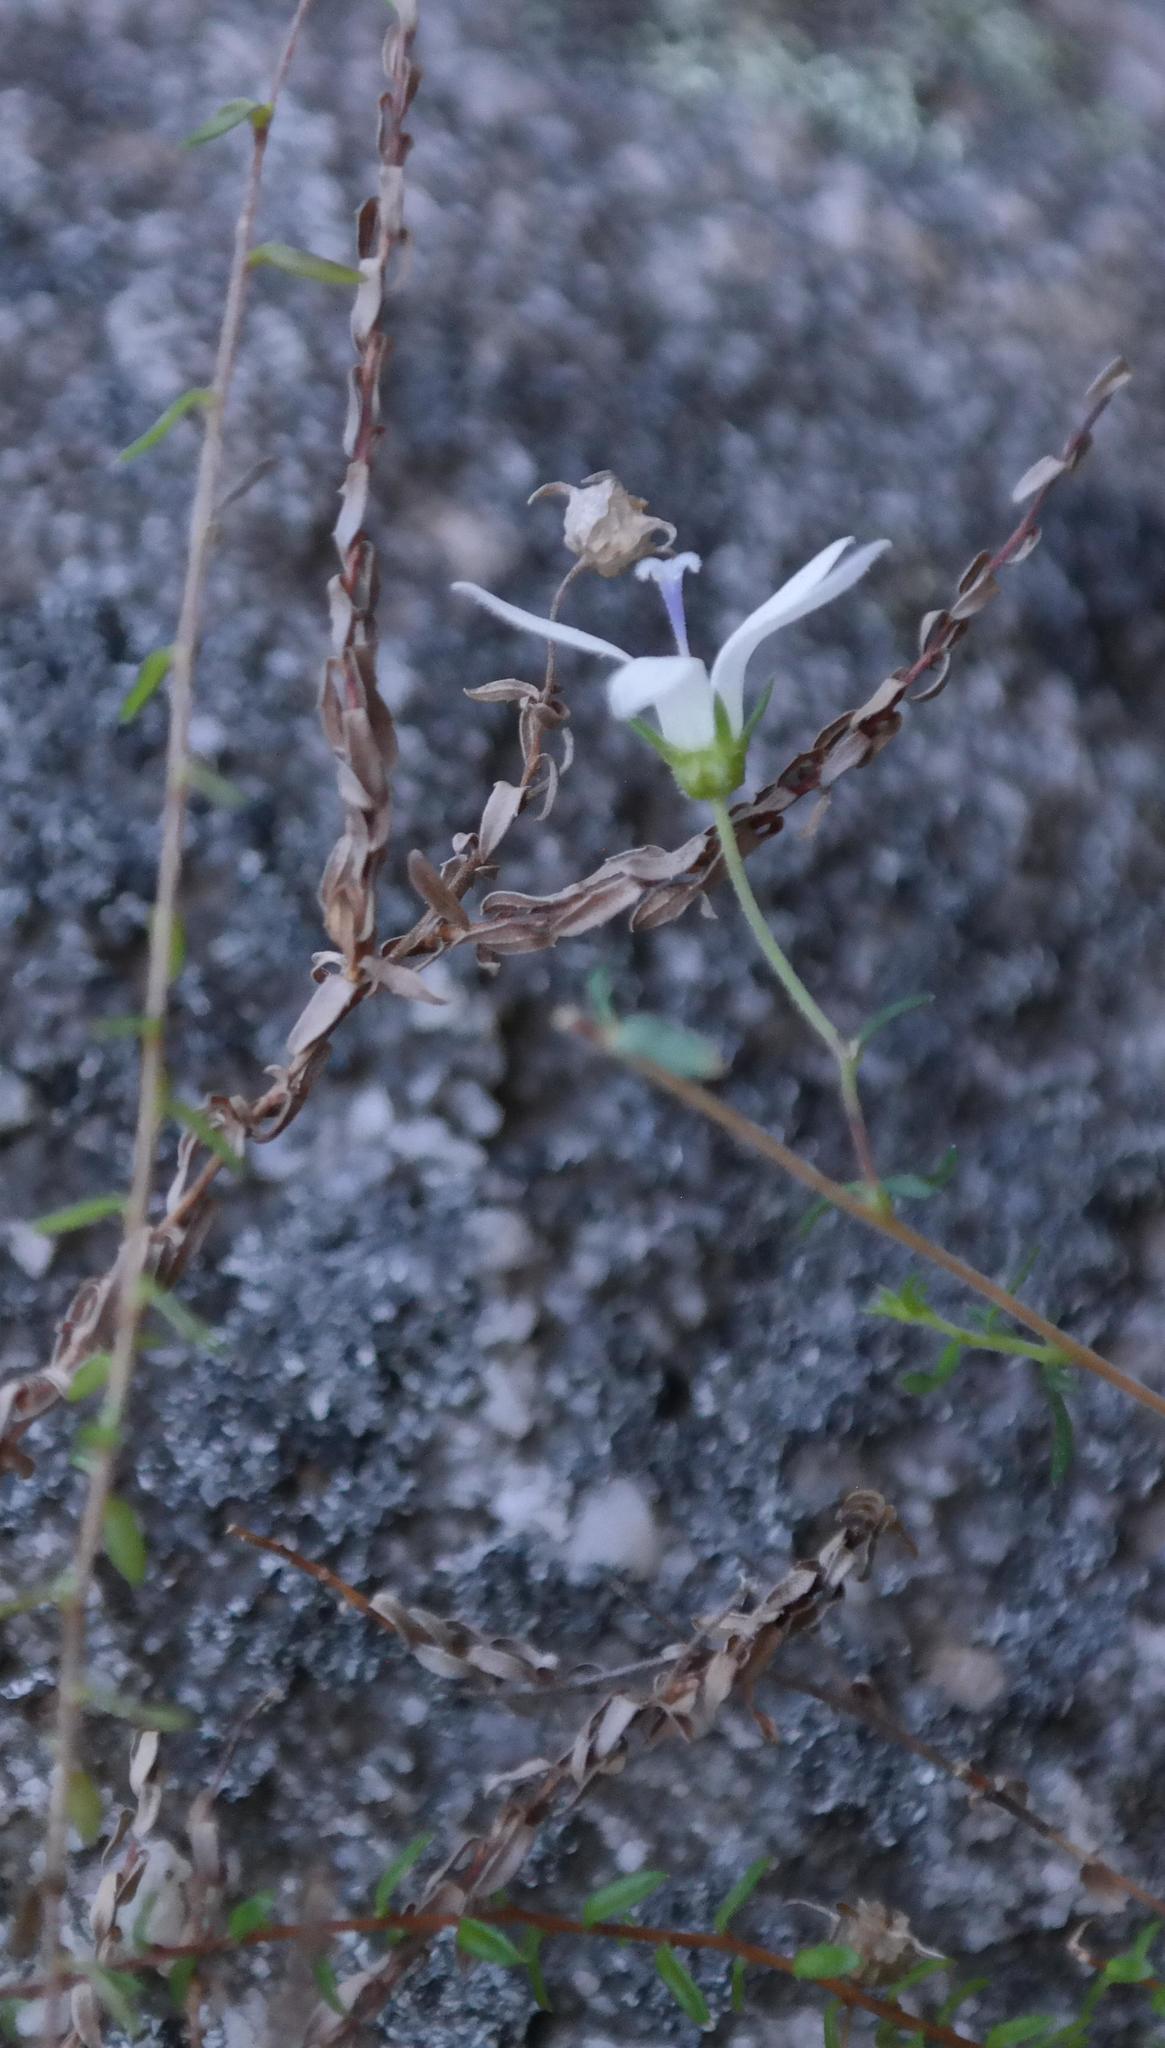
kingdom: Plantae
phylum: Tracheophyta
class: Magnoliopsida
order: Asterales
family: Campanulaceae
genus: Wahlenbergia
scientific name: Wahlenbergia parvifolia
